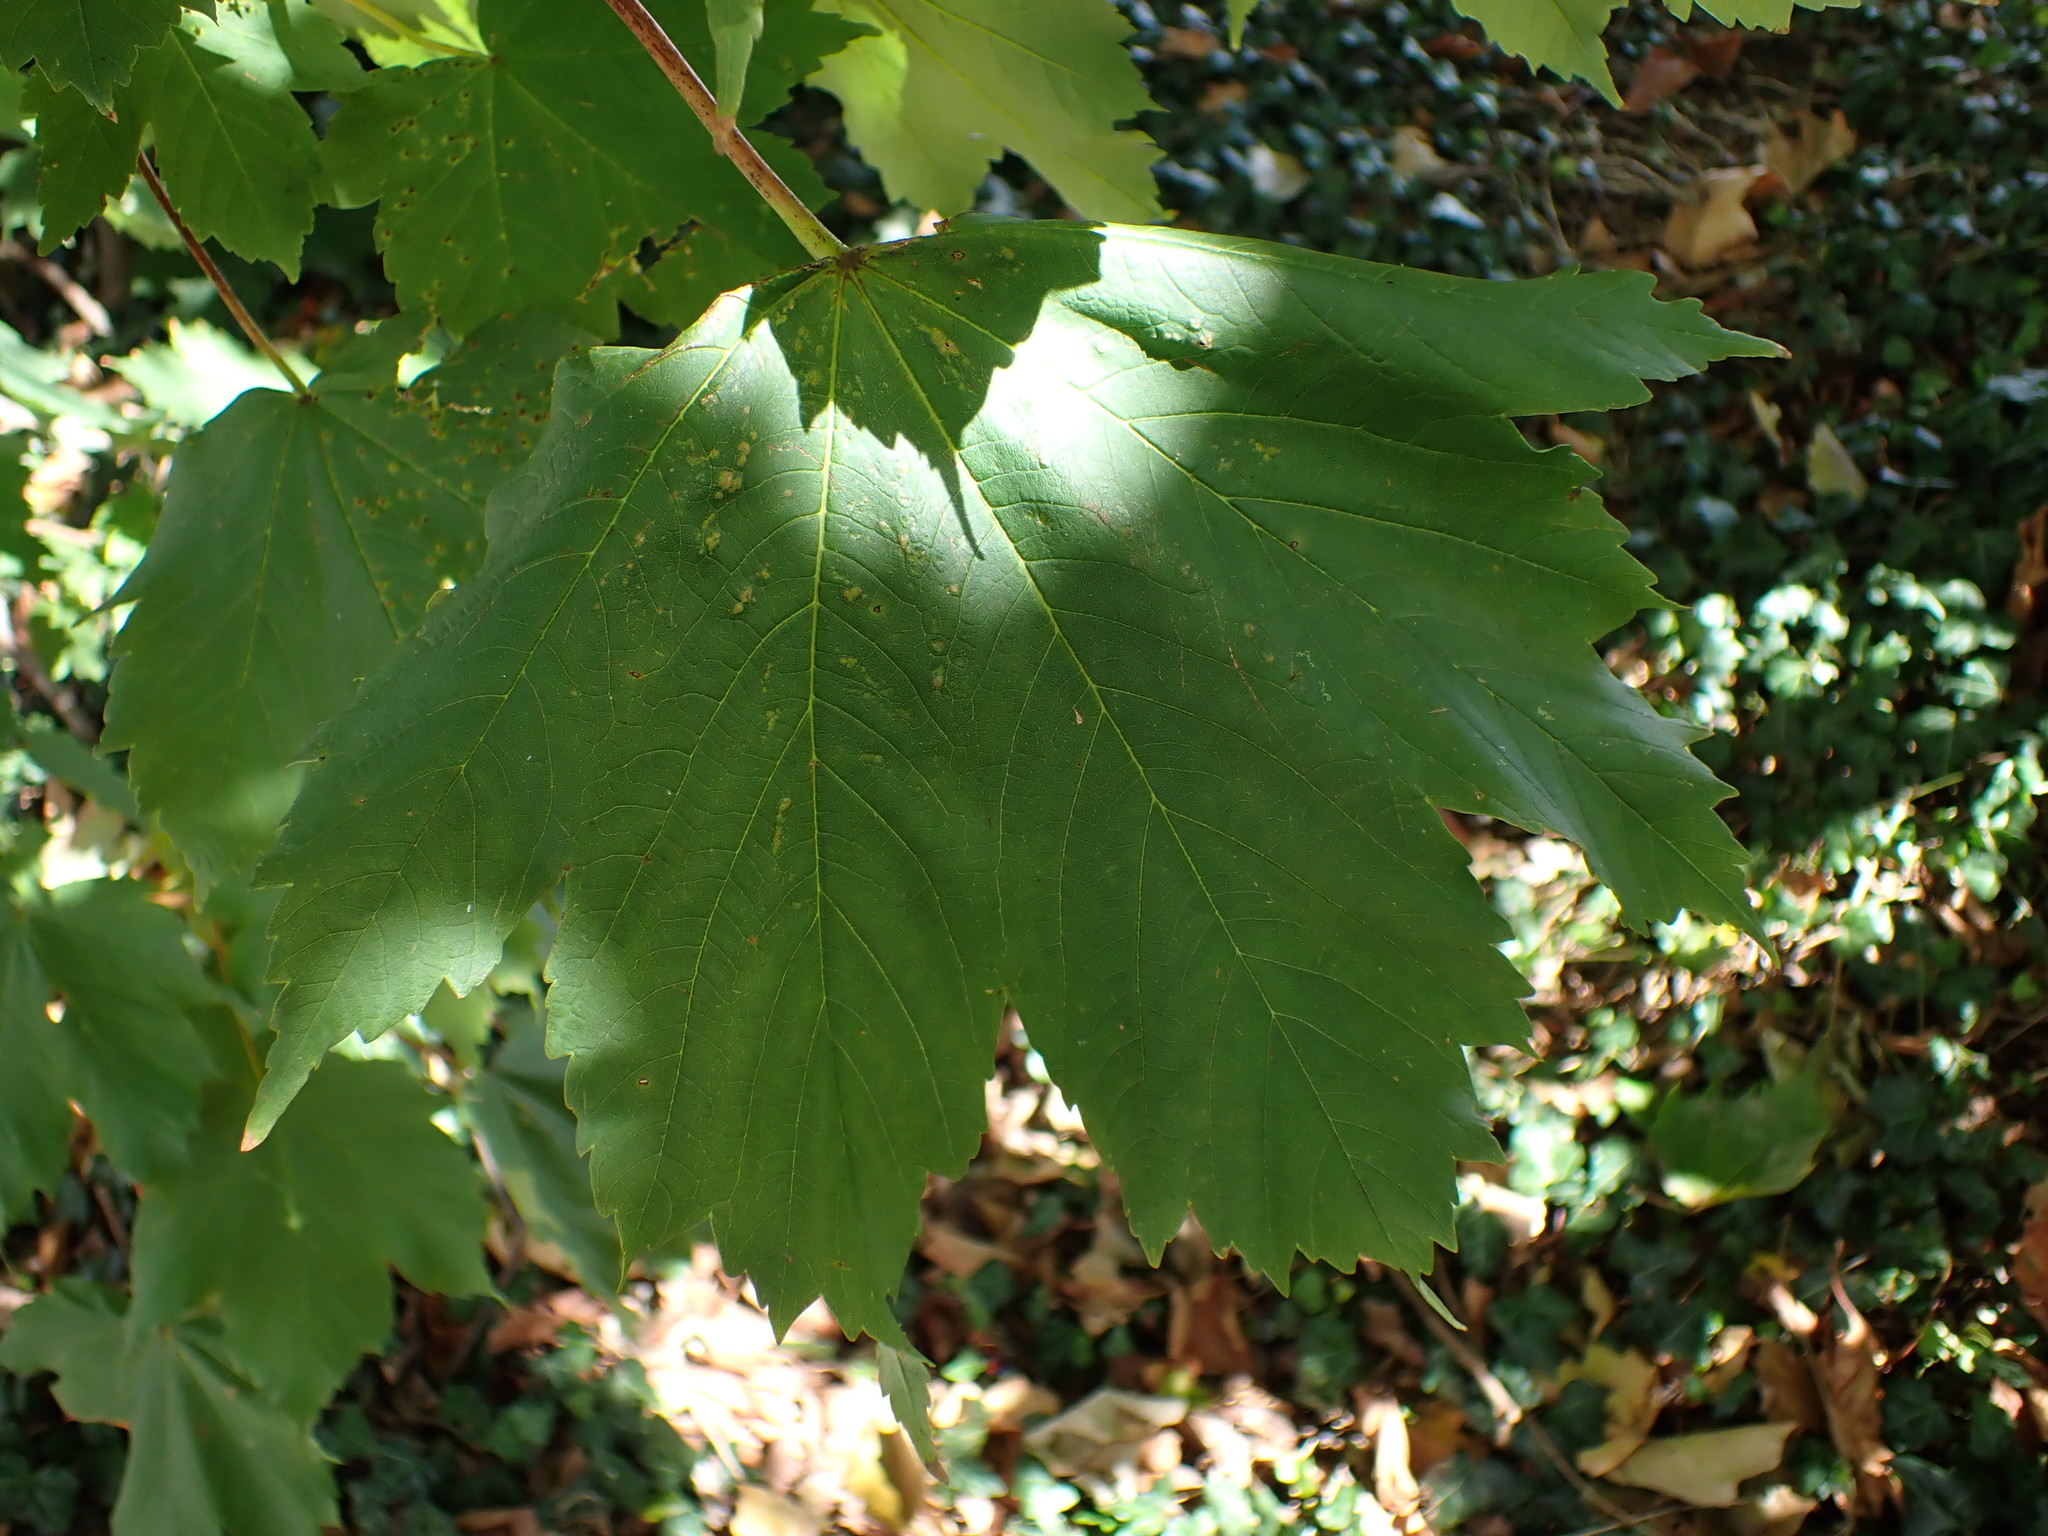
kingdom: Plantae
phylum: Tracheophyta
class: Magnoliopsida
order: Sapindales
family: Sapindaceae
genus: Acer
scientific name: Acer pseudoplatanus
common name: Sycamore
